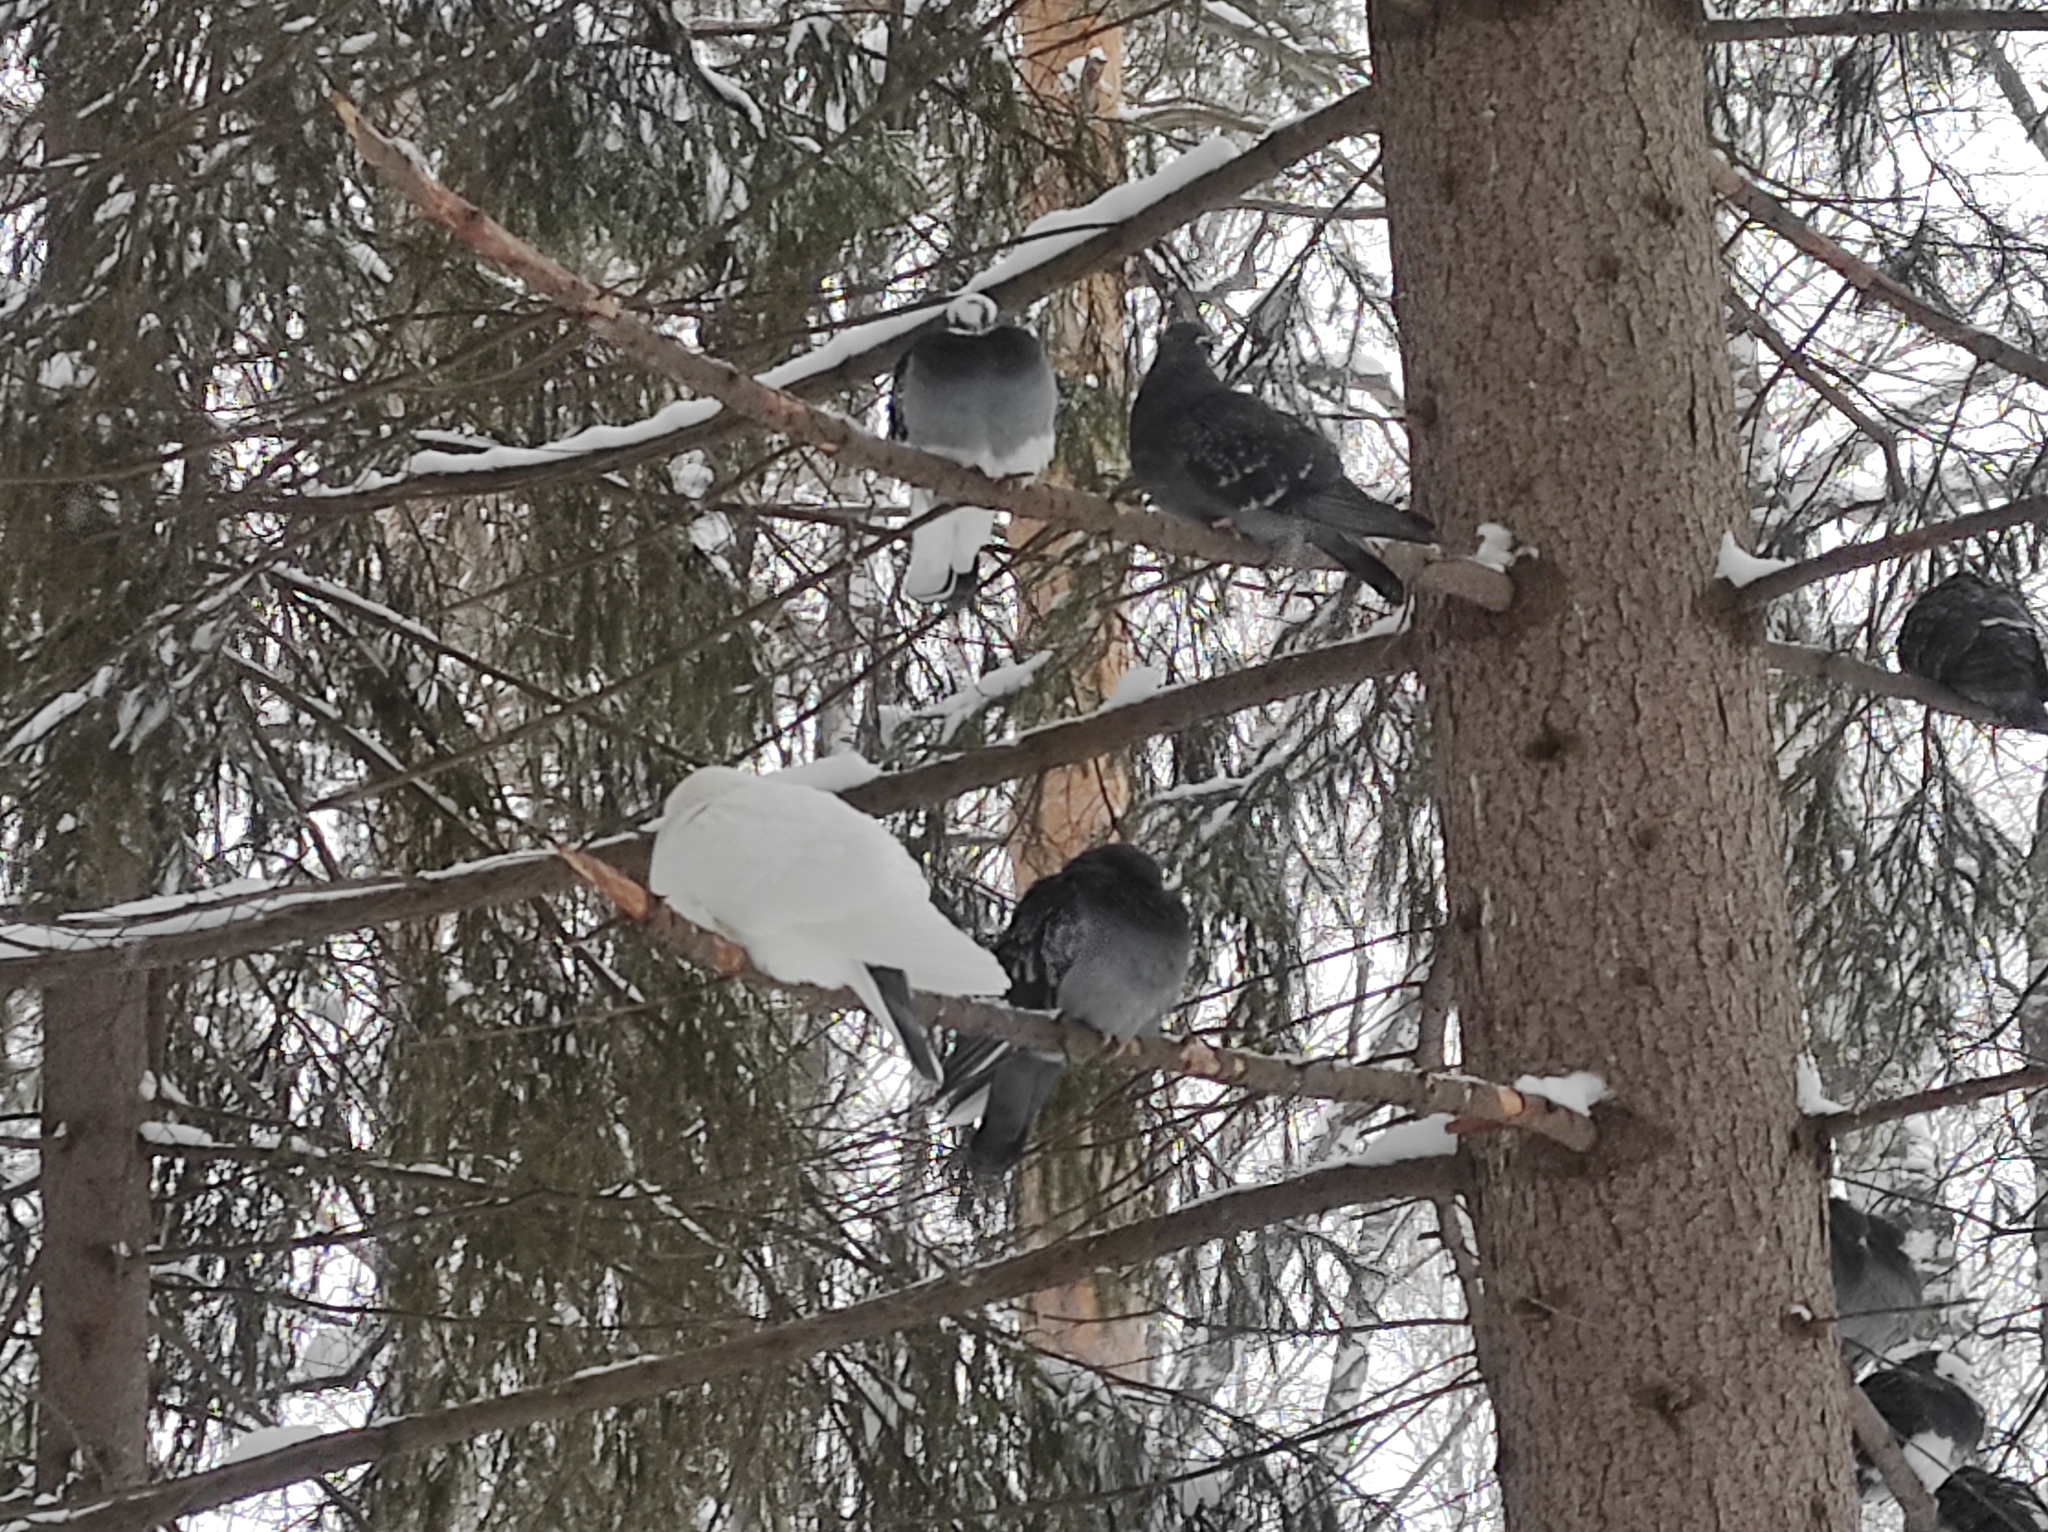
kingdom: Animalia
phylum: Chordata
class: Aves
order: Columbiformes
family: Columbidae
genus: Columba
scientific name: Columba livia
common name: Rock pigeon
